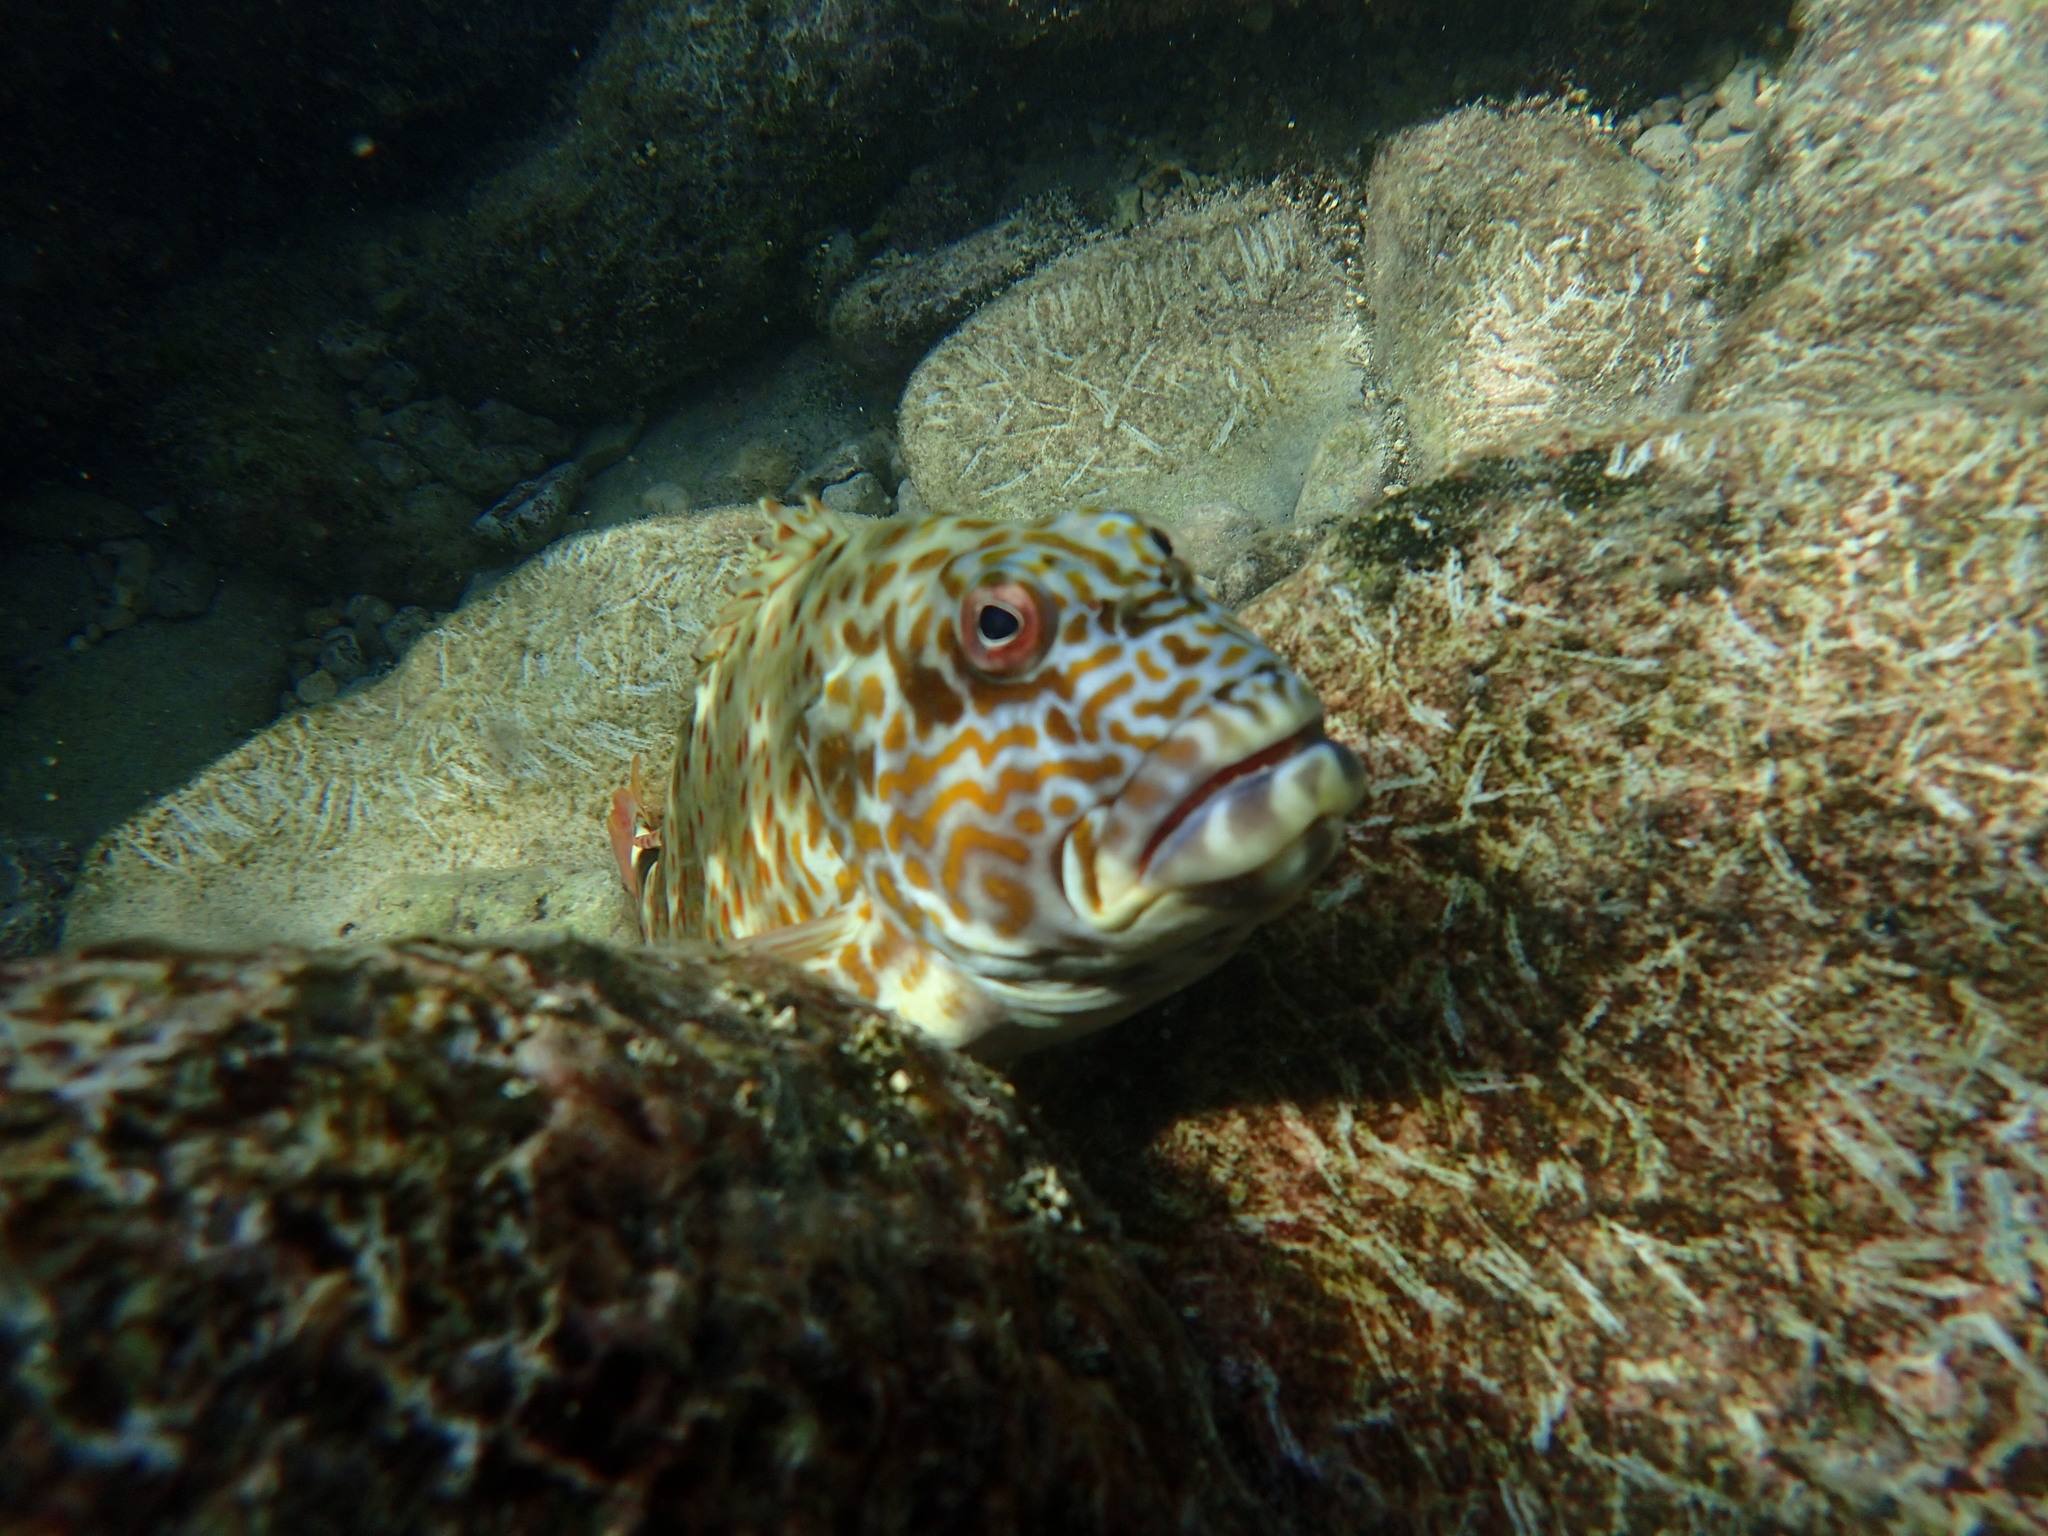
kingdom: Animalia
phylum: Chordata
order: Perciformes
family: Cirrhitidae
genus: Cirrhitus
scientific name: Cirrhitus pinnulatus
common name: Stocky hawkfish
